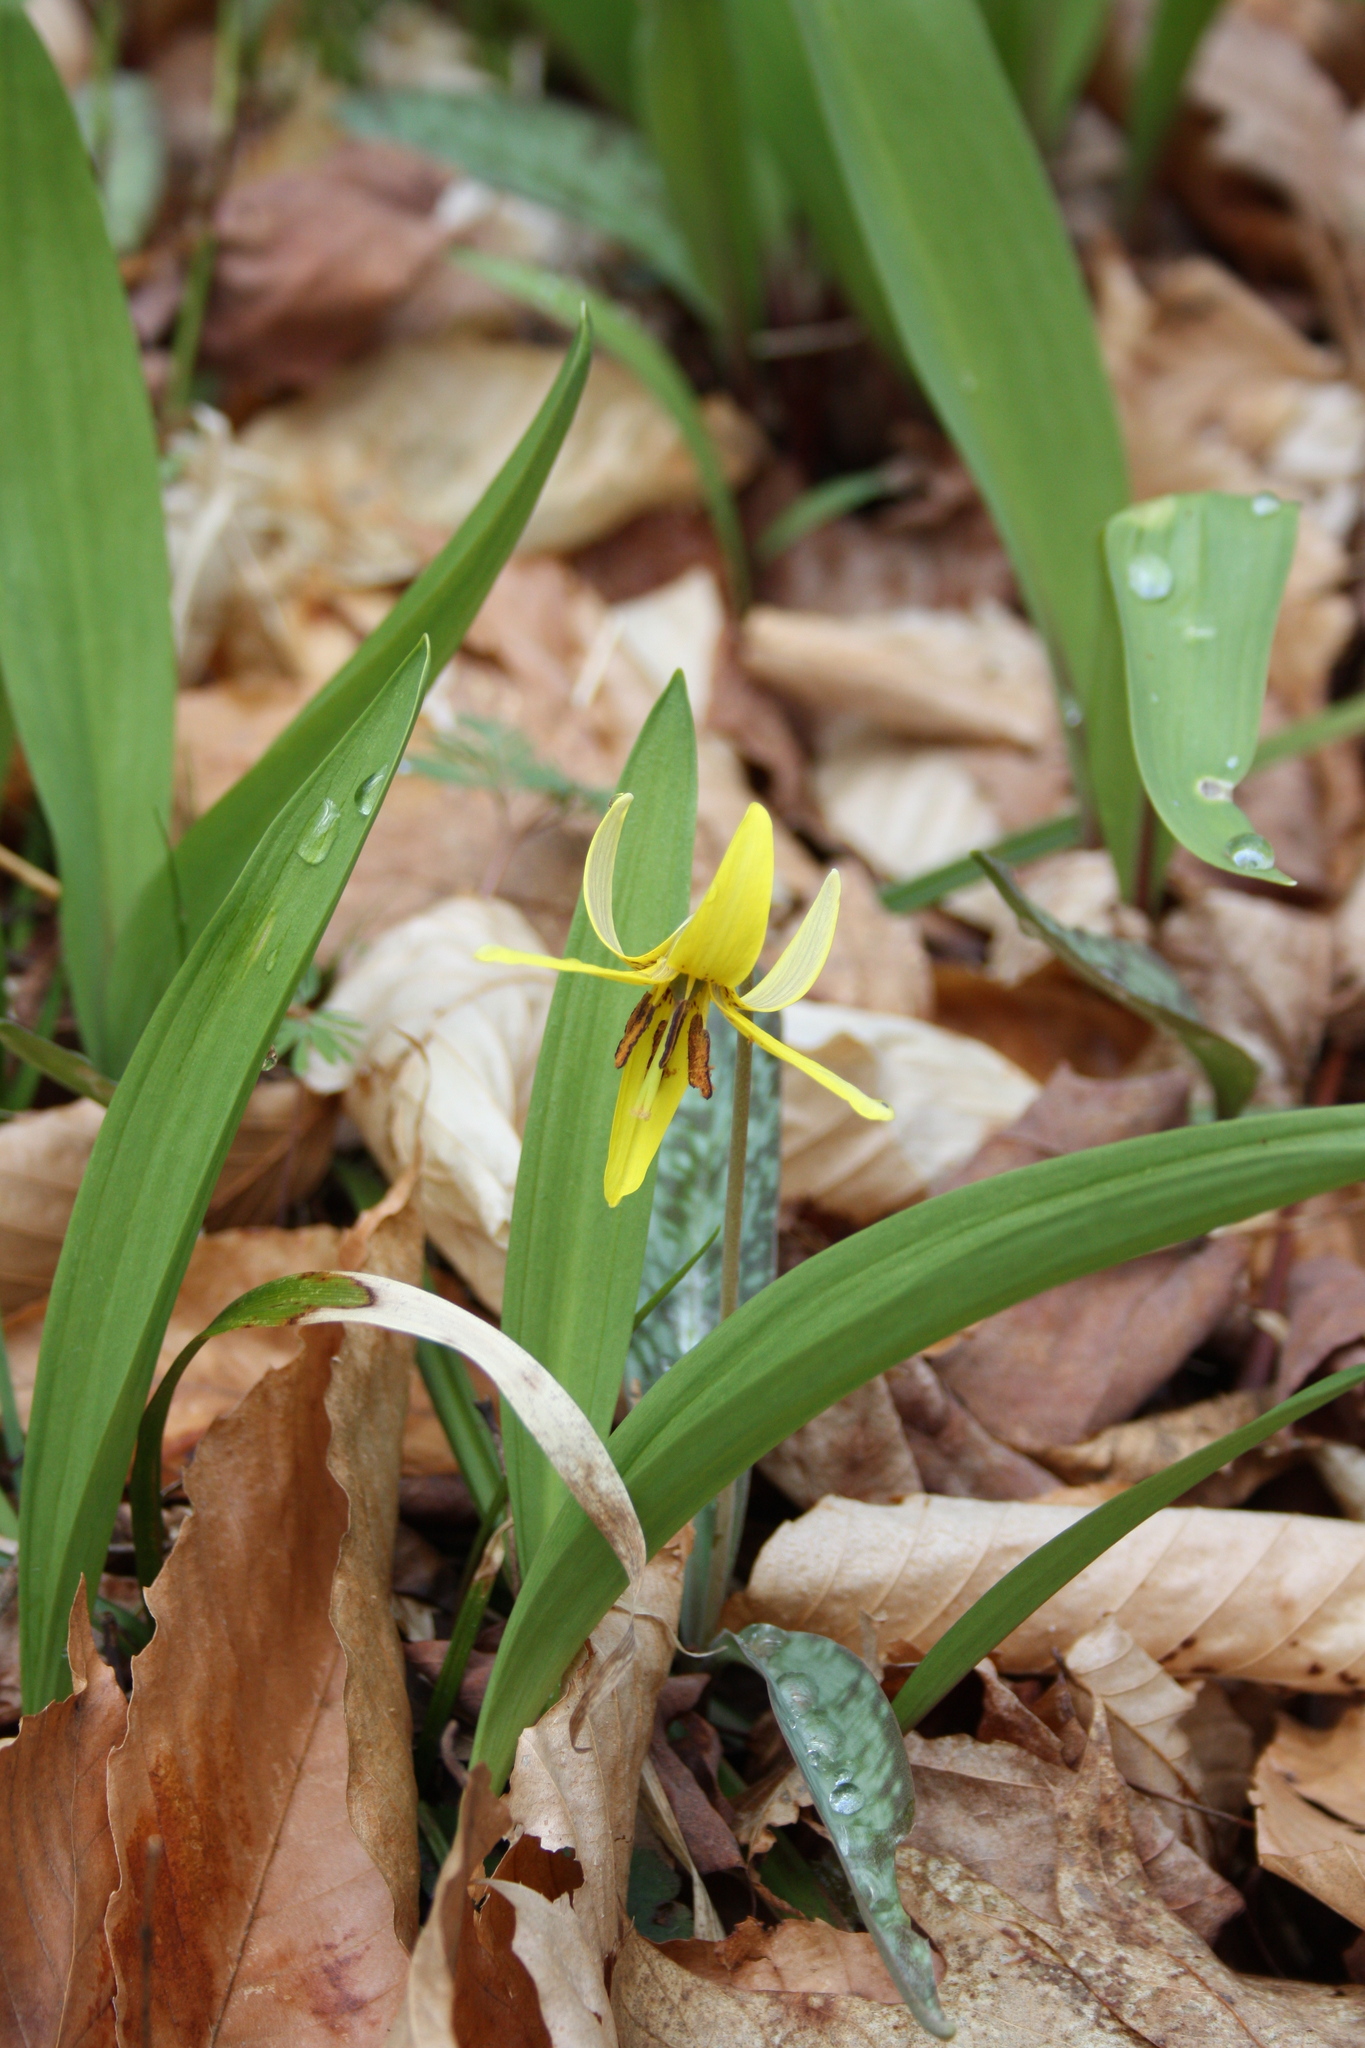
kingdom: Plantae
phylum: Tracheophyta
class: Liliopsida
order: Liliales
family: Liliaceae
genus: Erythronium
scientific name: Erythronium americanum
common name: Yellow adder's-tongue
